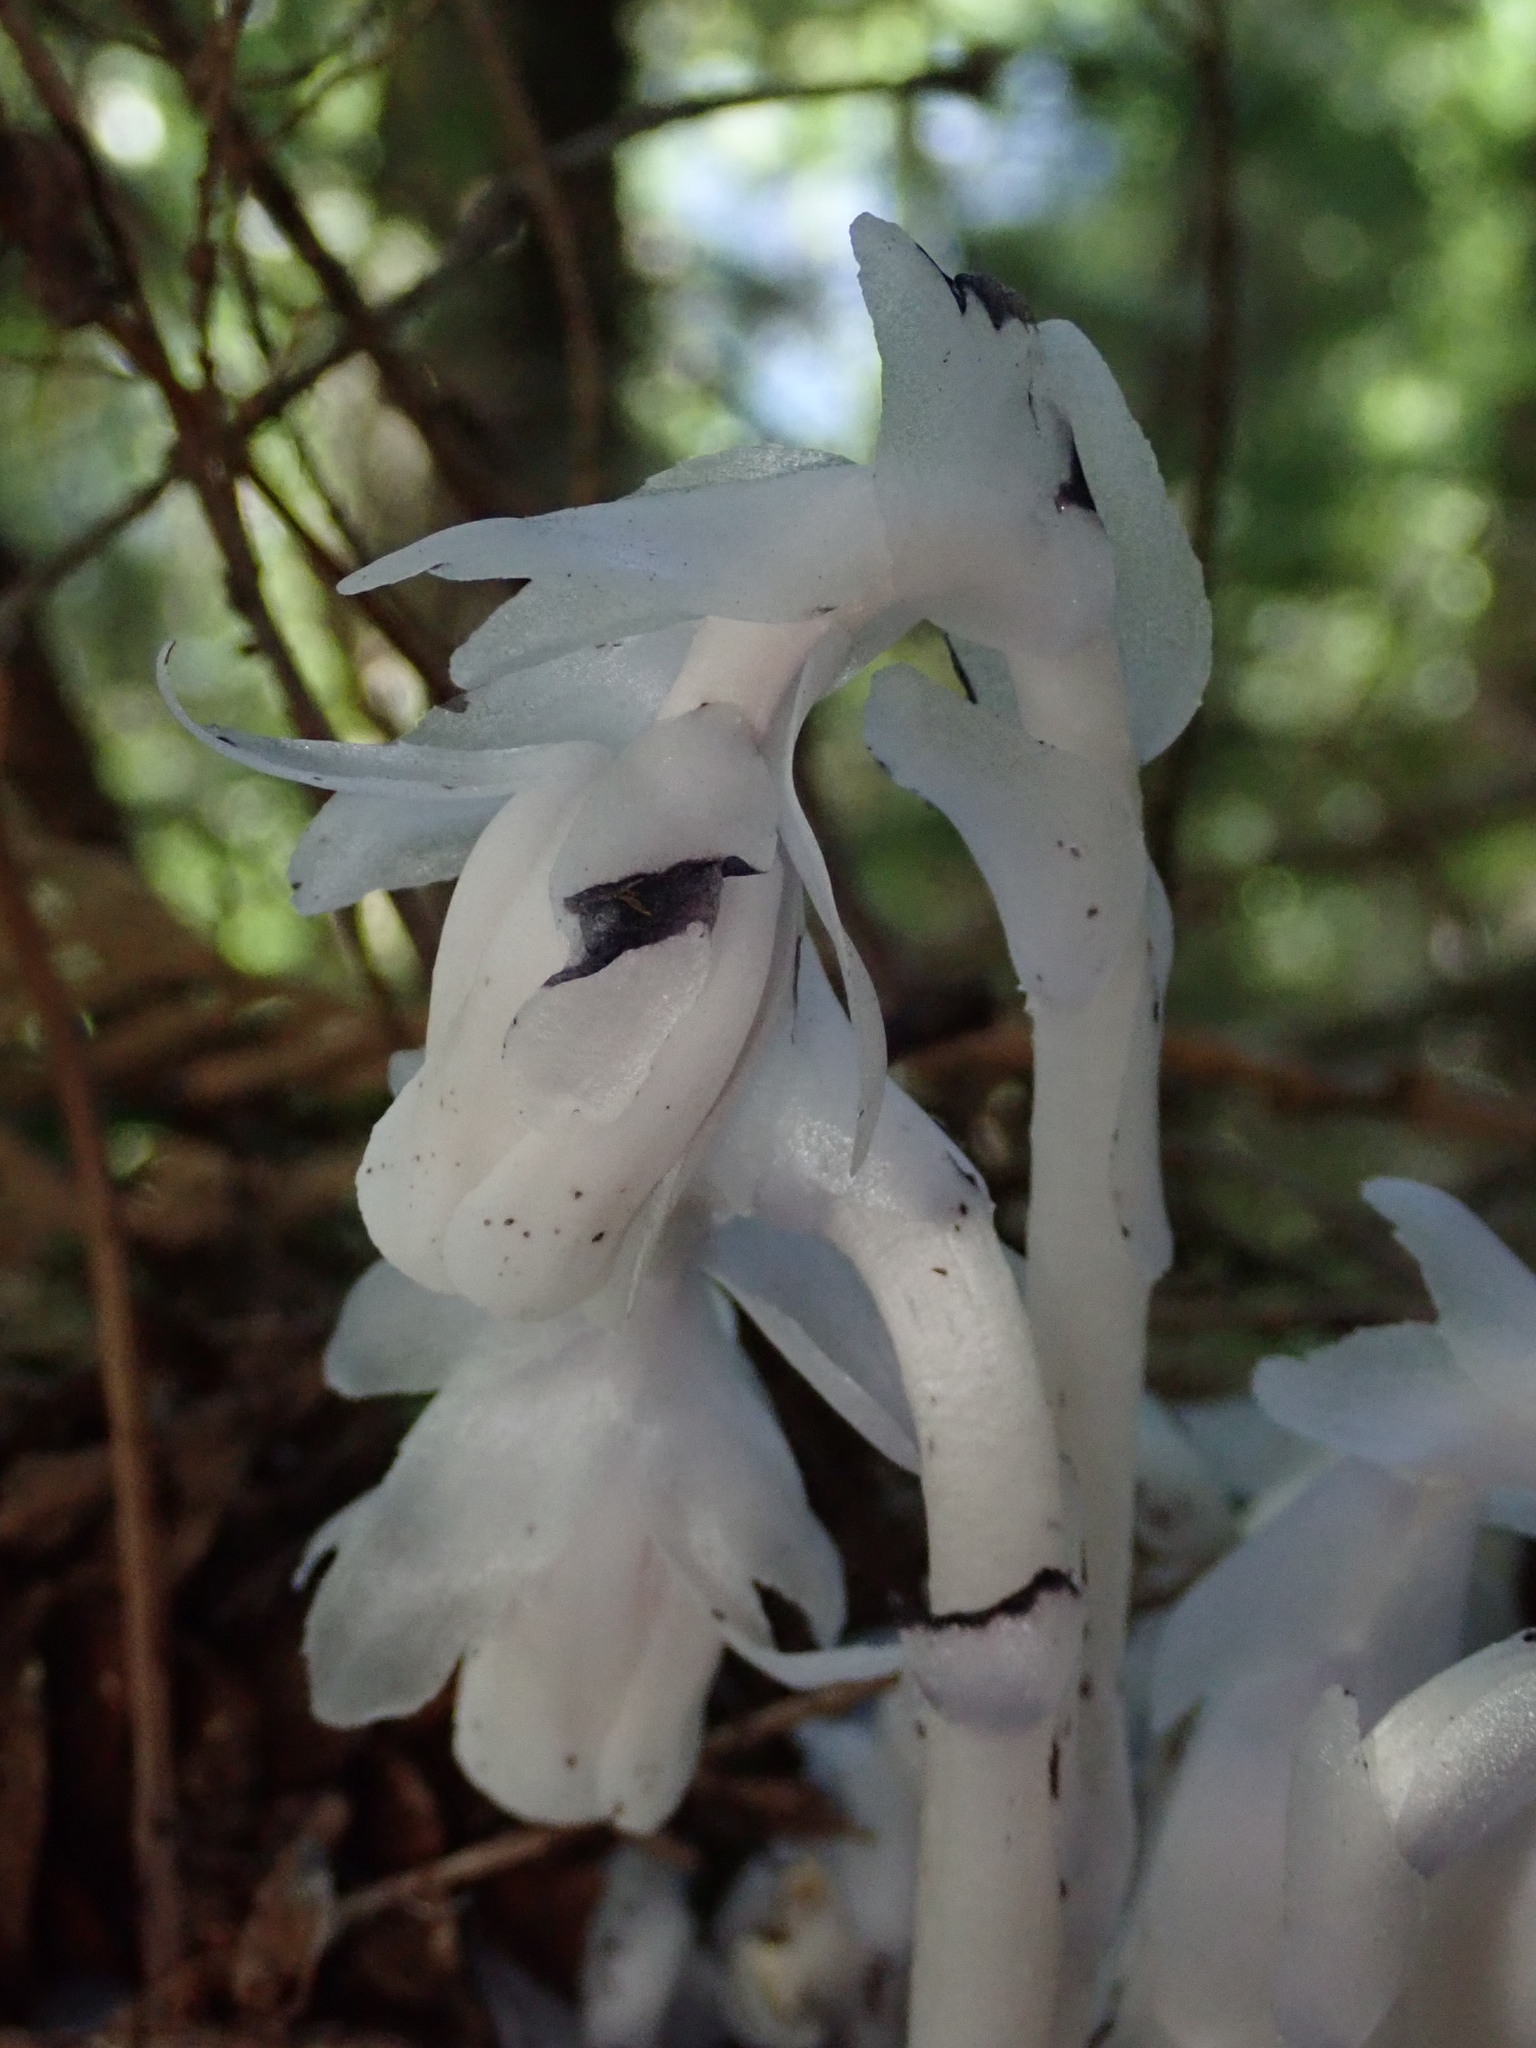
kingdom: Plantae
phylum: Tracheophyta
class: Magnoliopsida
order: Ericales
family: Ericaceae
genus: Monotropa
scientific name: Monotropa uniflora
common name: Convulsion root
